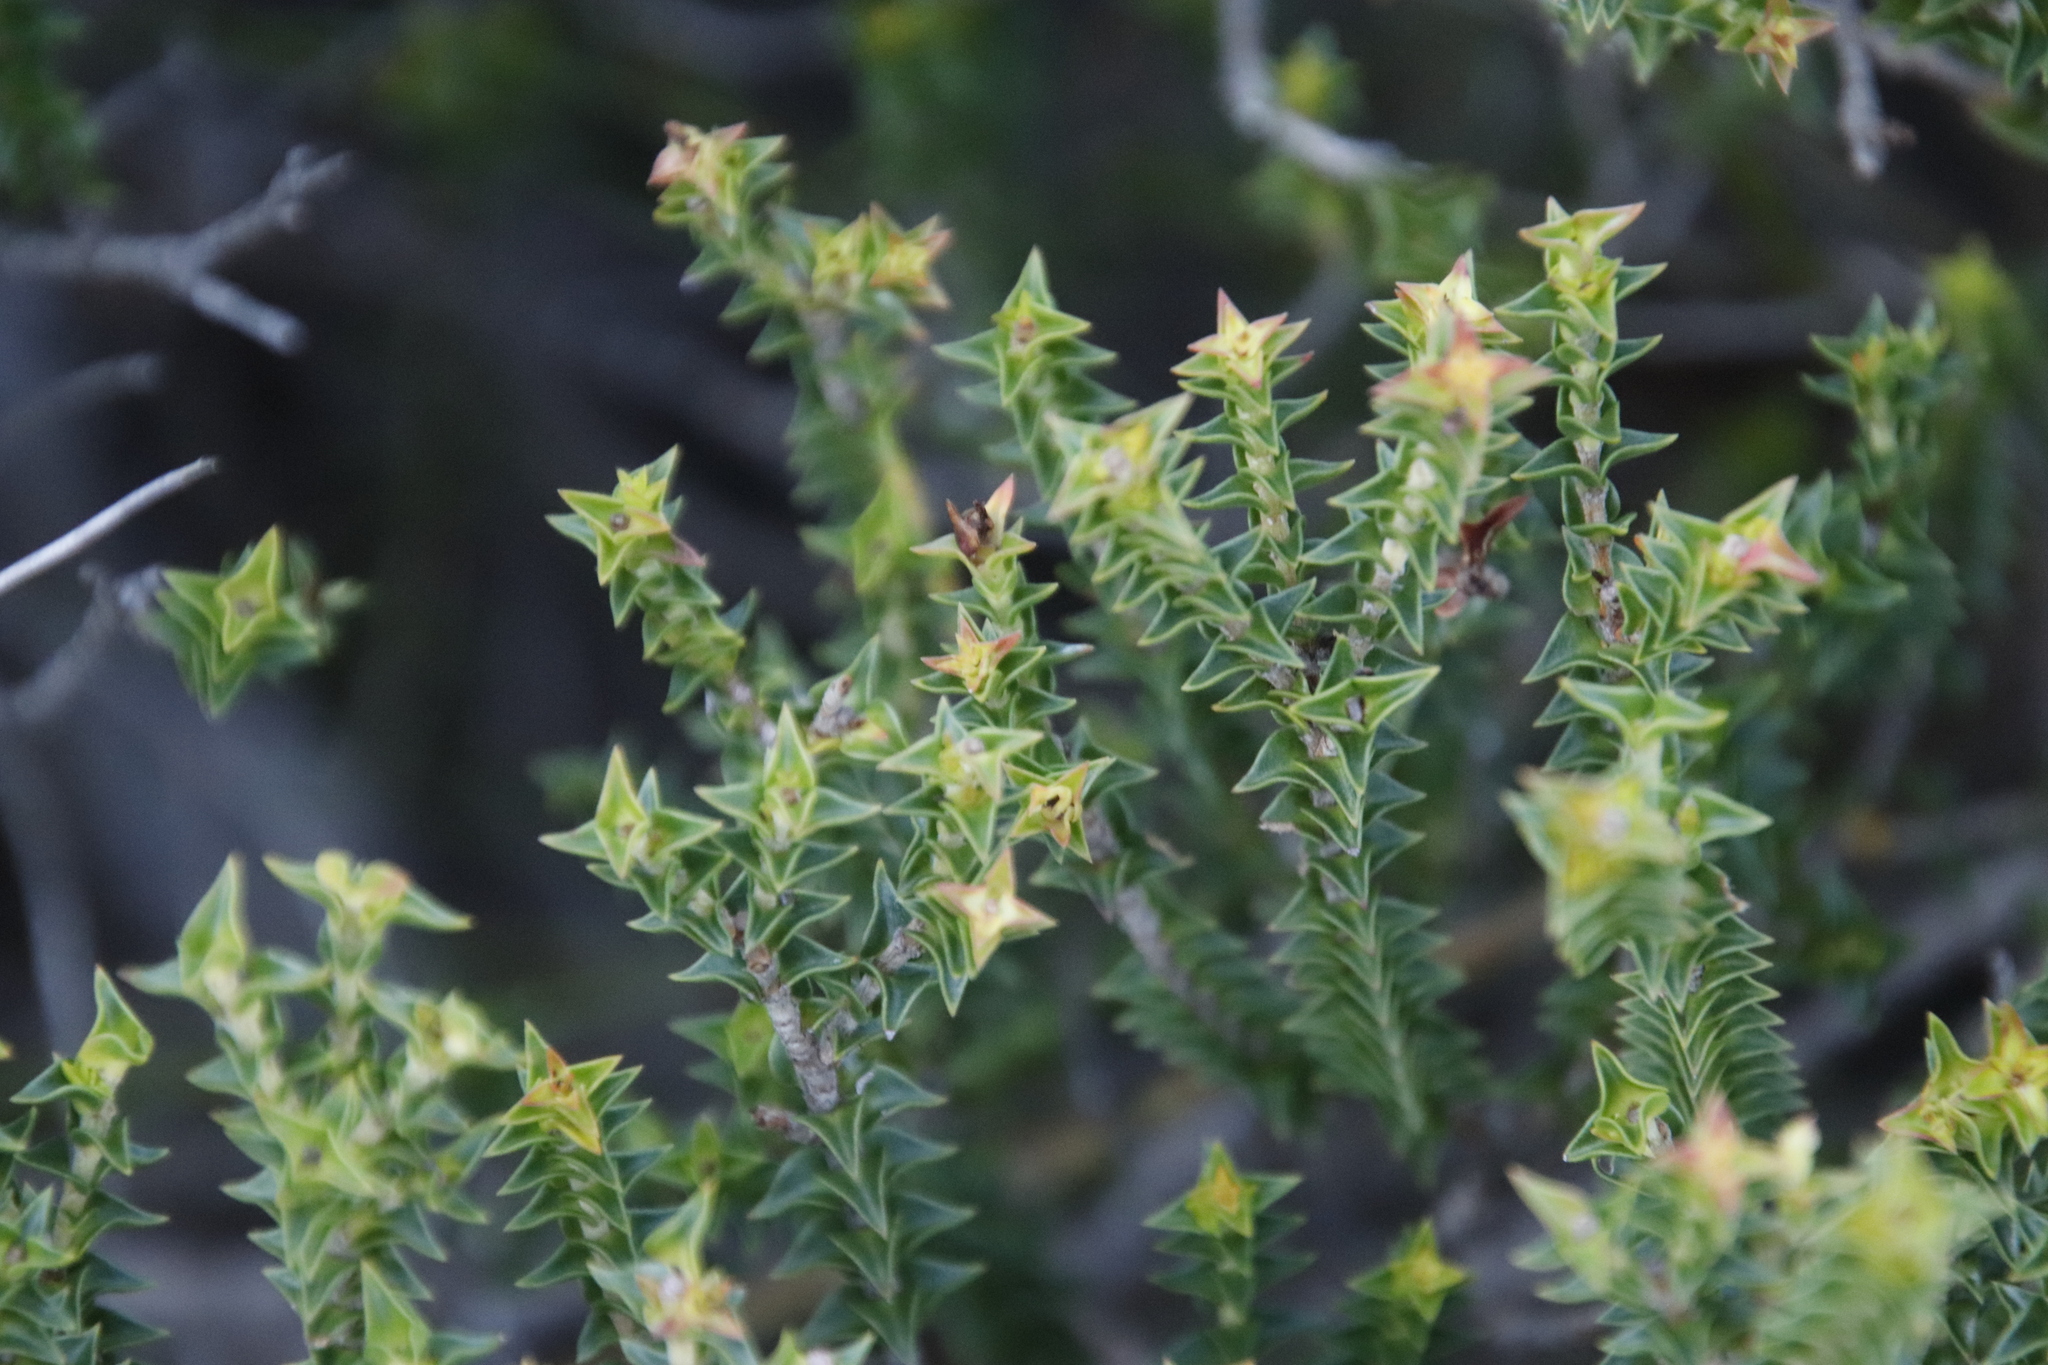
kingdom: Plantae
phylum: Tracheophyta
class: Magnoliopsida
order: Myrtales
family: Penaeaceae
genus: Penaea
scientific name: Penaea mucronata
